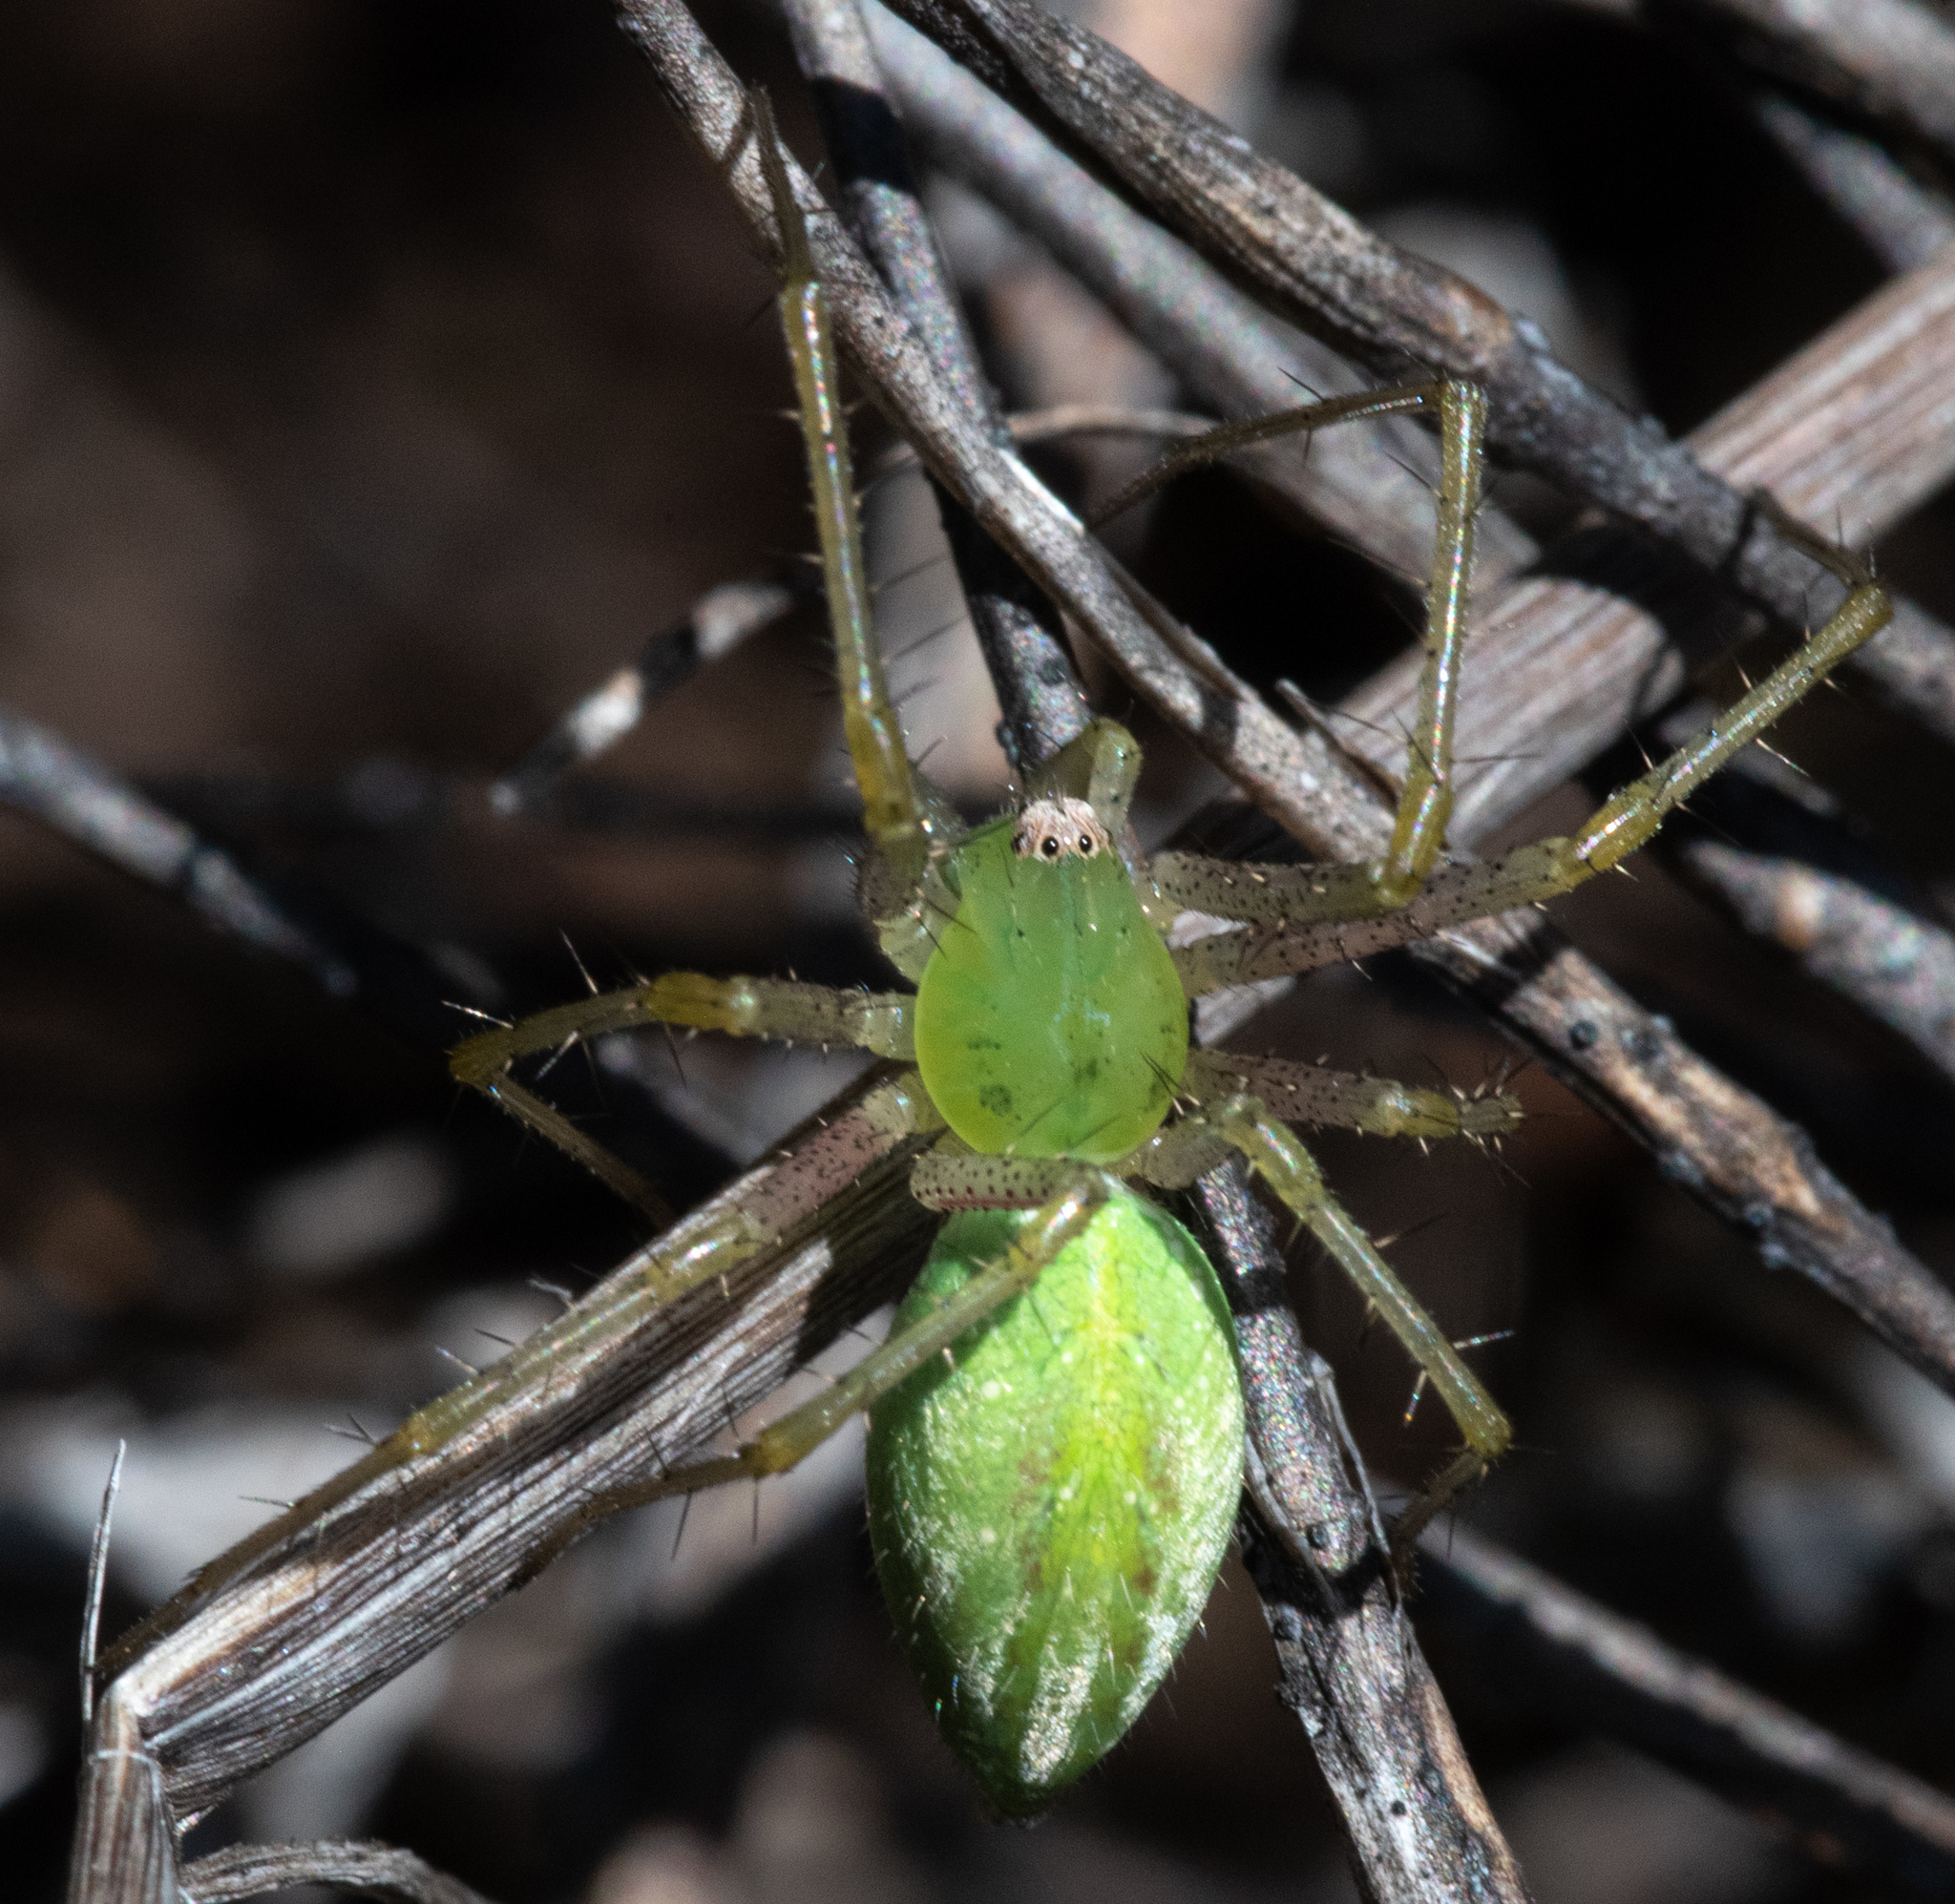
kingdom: Animalia
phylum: Arthropoda
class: Arachnida
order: Araneae
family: Oxyopidae
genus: Peucetia
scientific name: Peucetia longipalpis
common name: Lynx spiders
